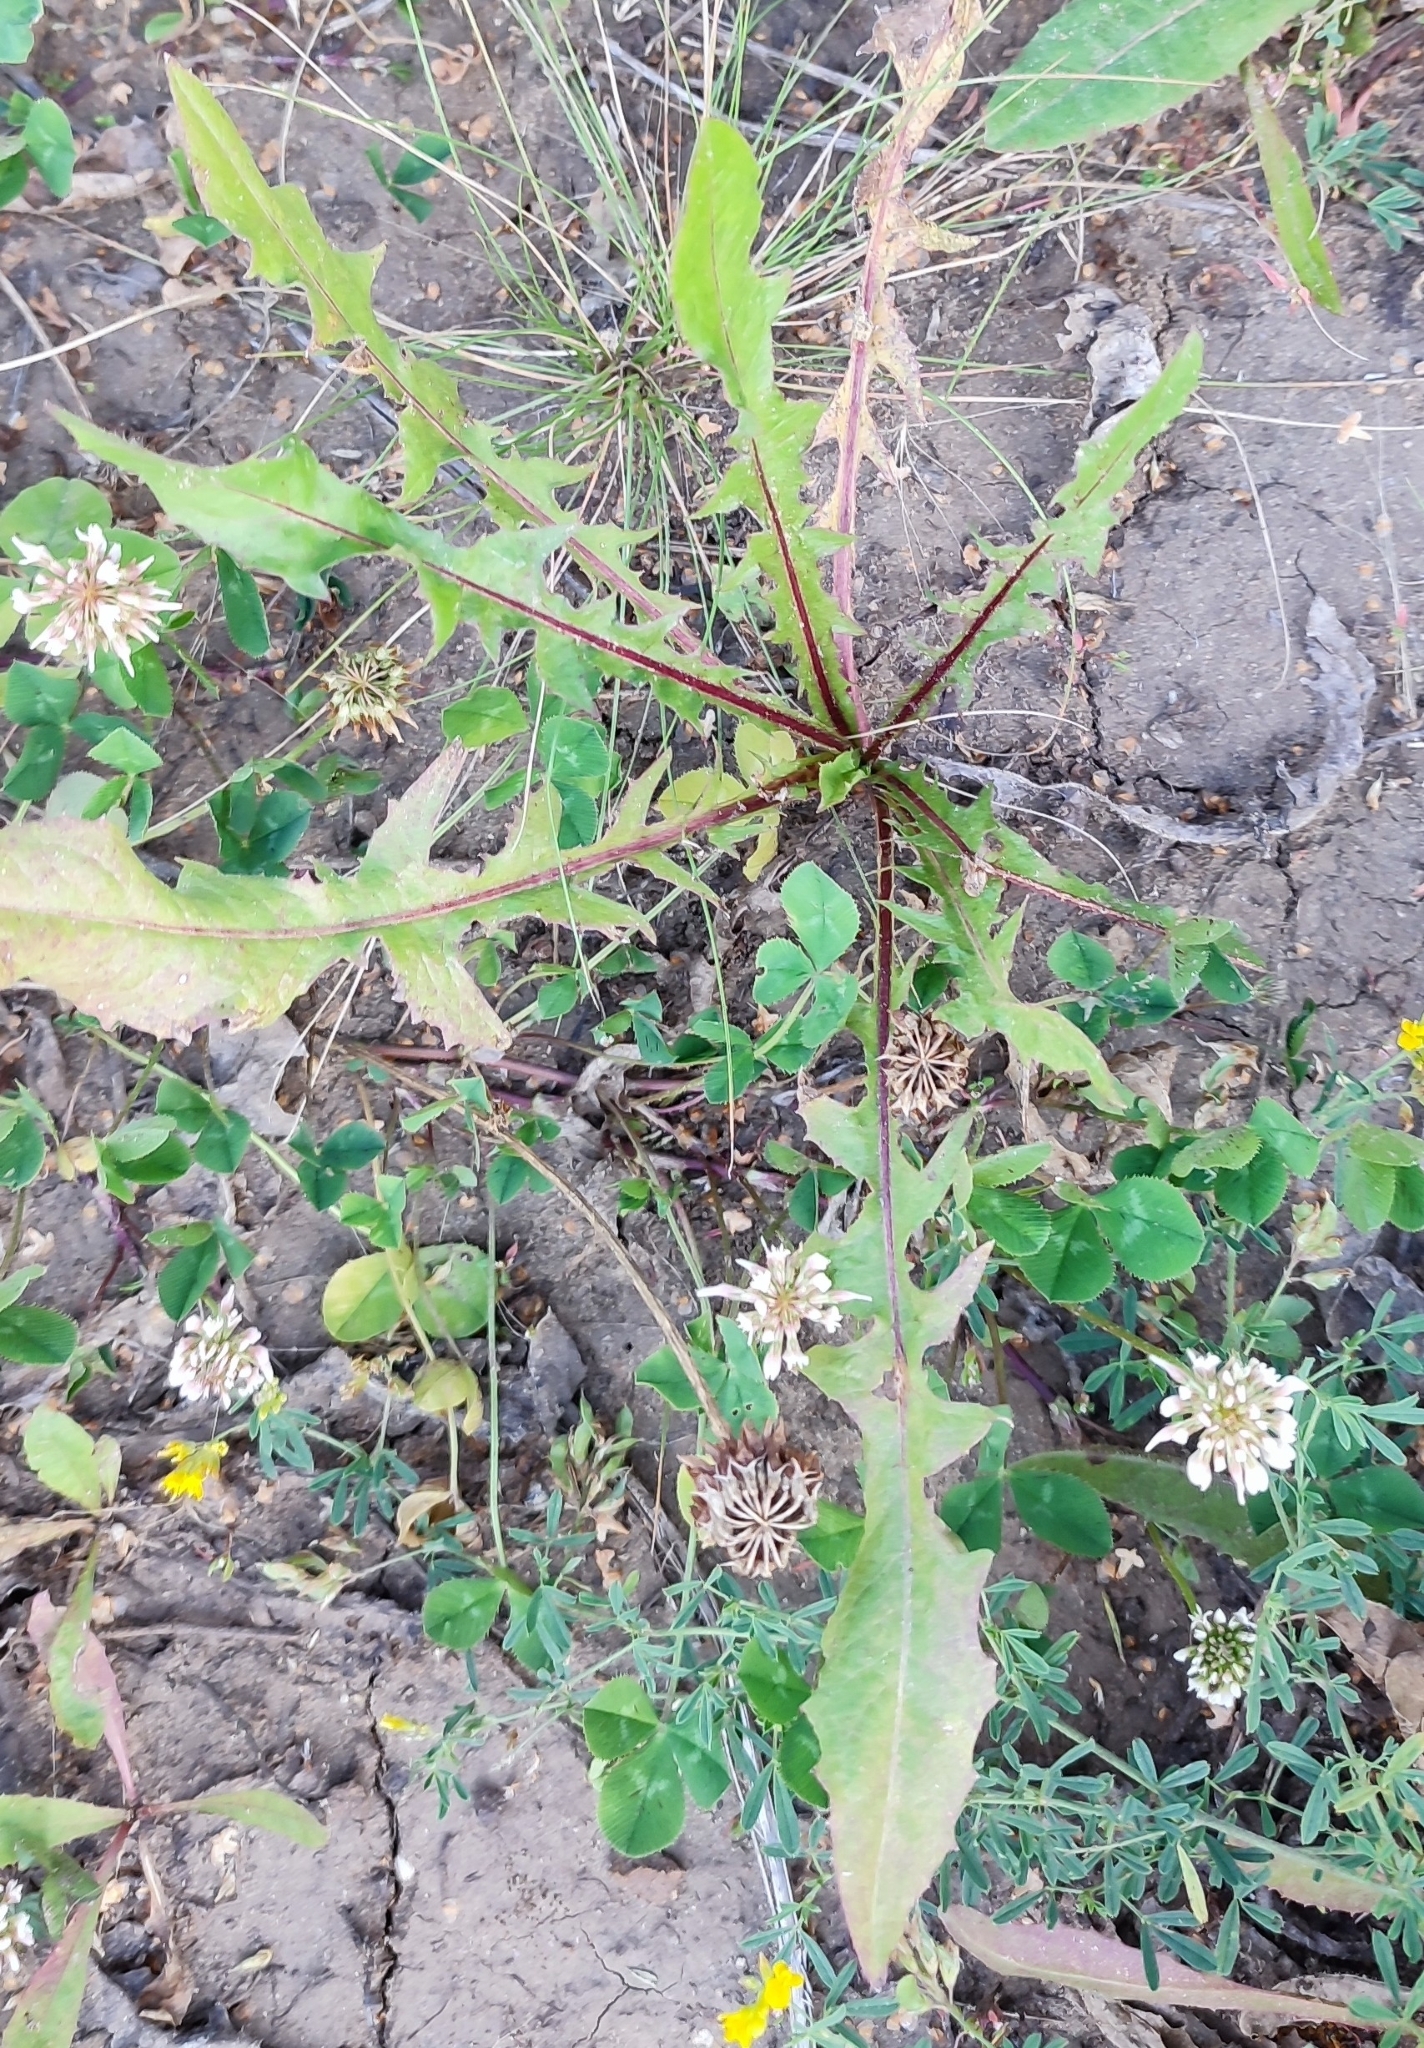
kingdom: Plantae
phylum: Tracheophyta
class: Magnoliopsida
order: Asterales
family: Asteraceae
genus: Taraxacum
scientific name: Taraxacum officinale
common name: Common dandelion
